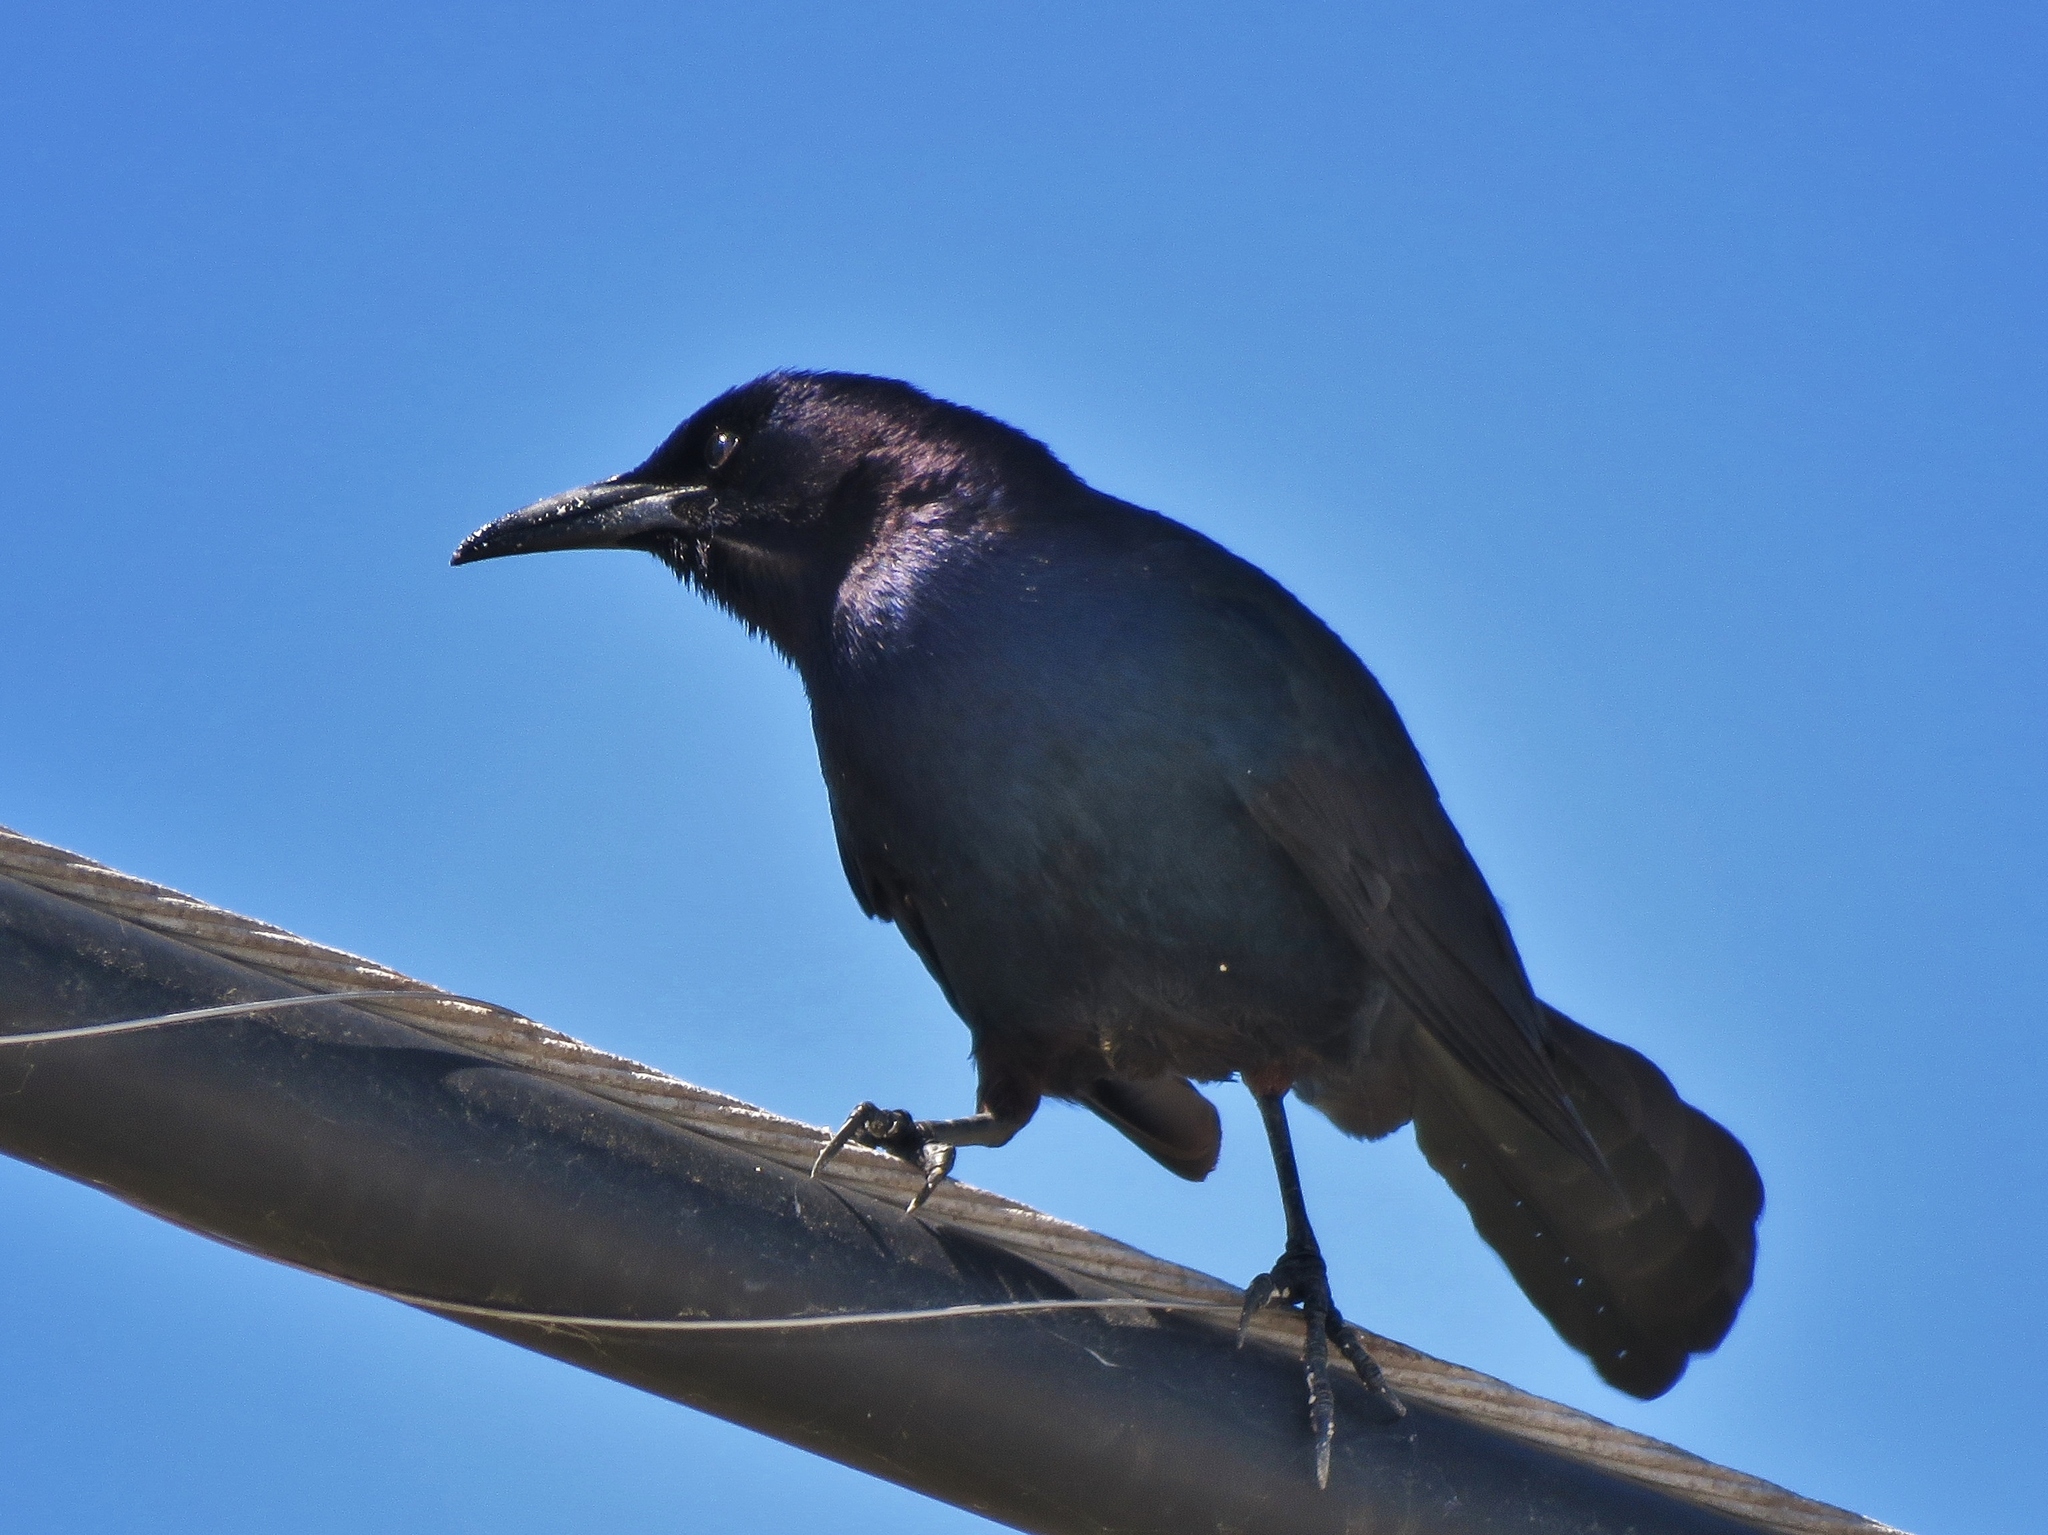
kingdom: Animalia
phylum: Chordata
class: Aves
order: Passeriformes
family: Icteridae
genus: Quiscalus
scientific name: Quiscalus major
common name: Boat-tailed grackle
